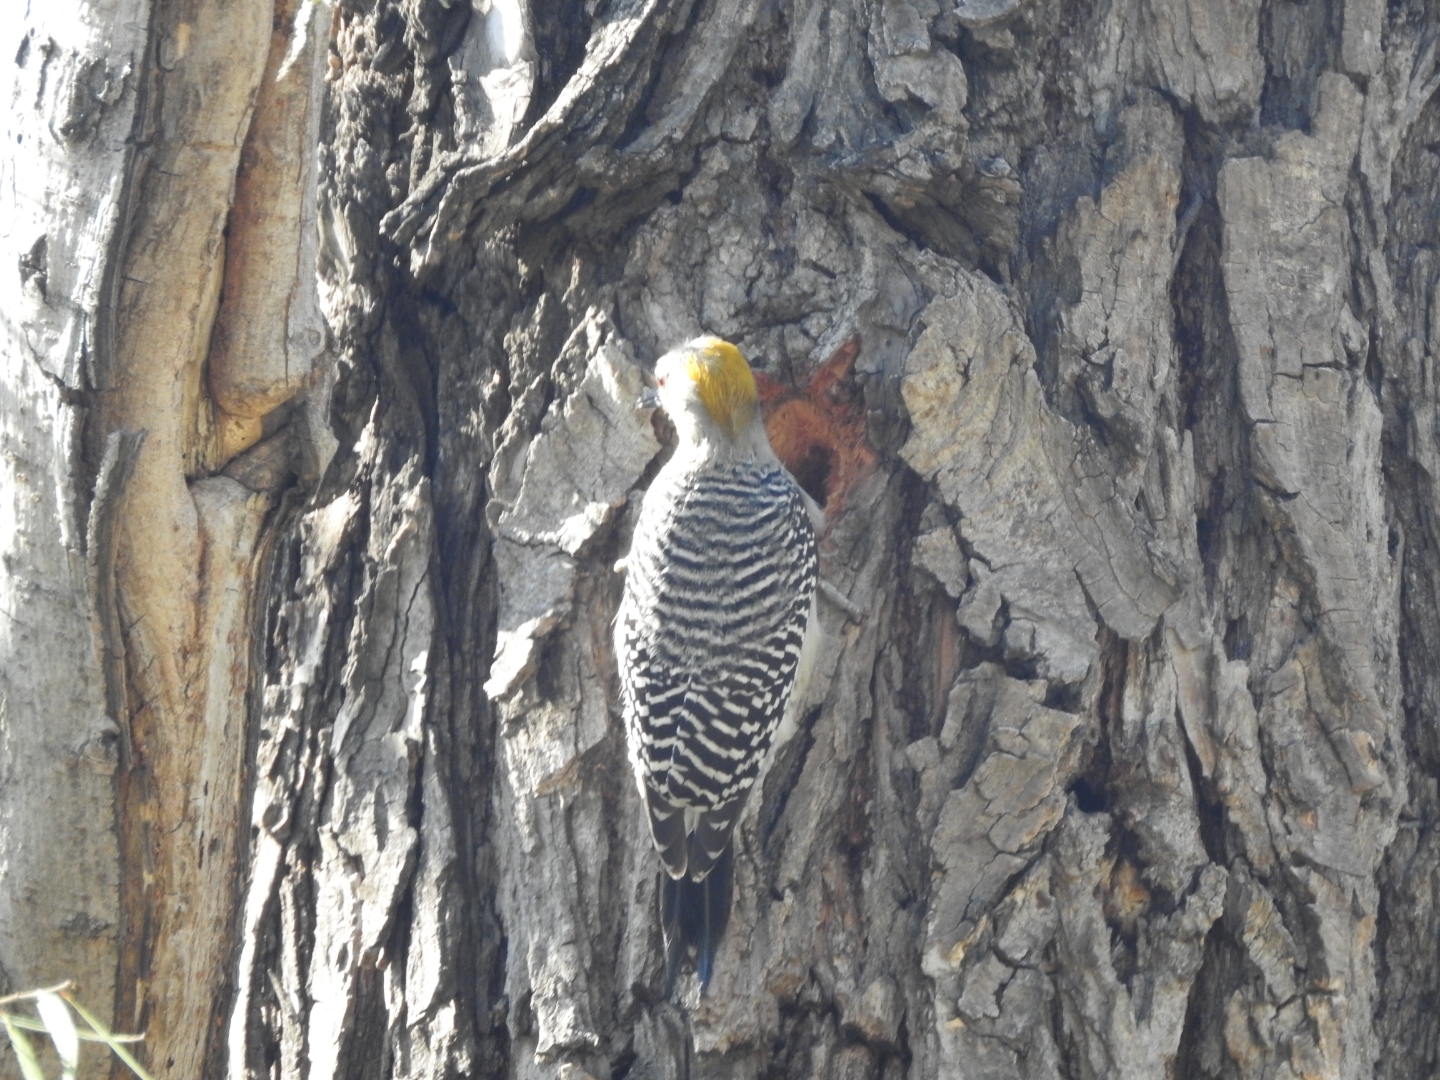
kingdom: Animalia
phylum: Chordata
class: Aves
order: Piciformes
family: Picidae
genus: Melanerpes
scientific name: Melanerpes aurifrons
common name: Golden-fronted woodpecker
